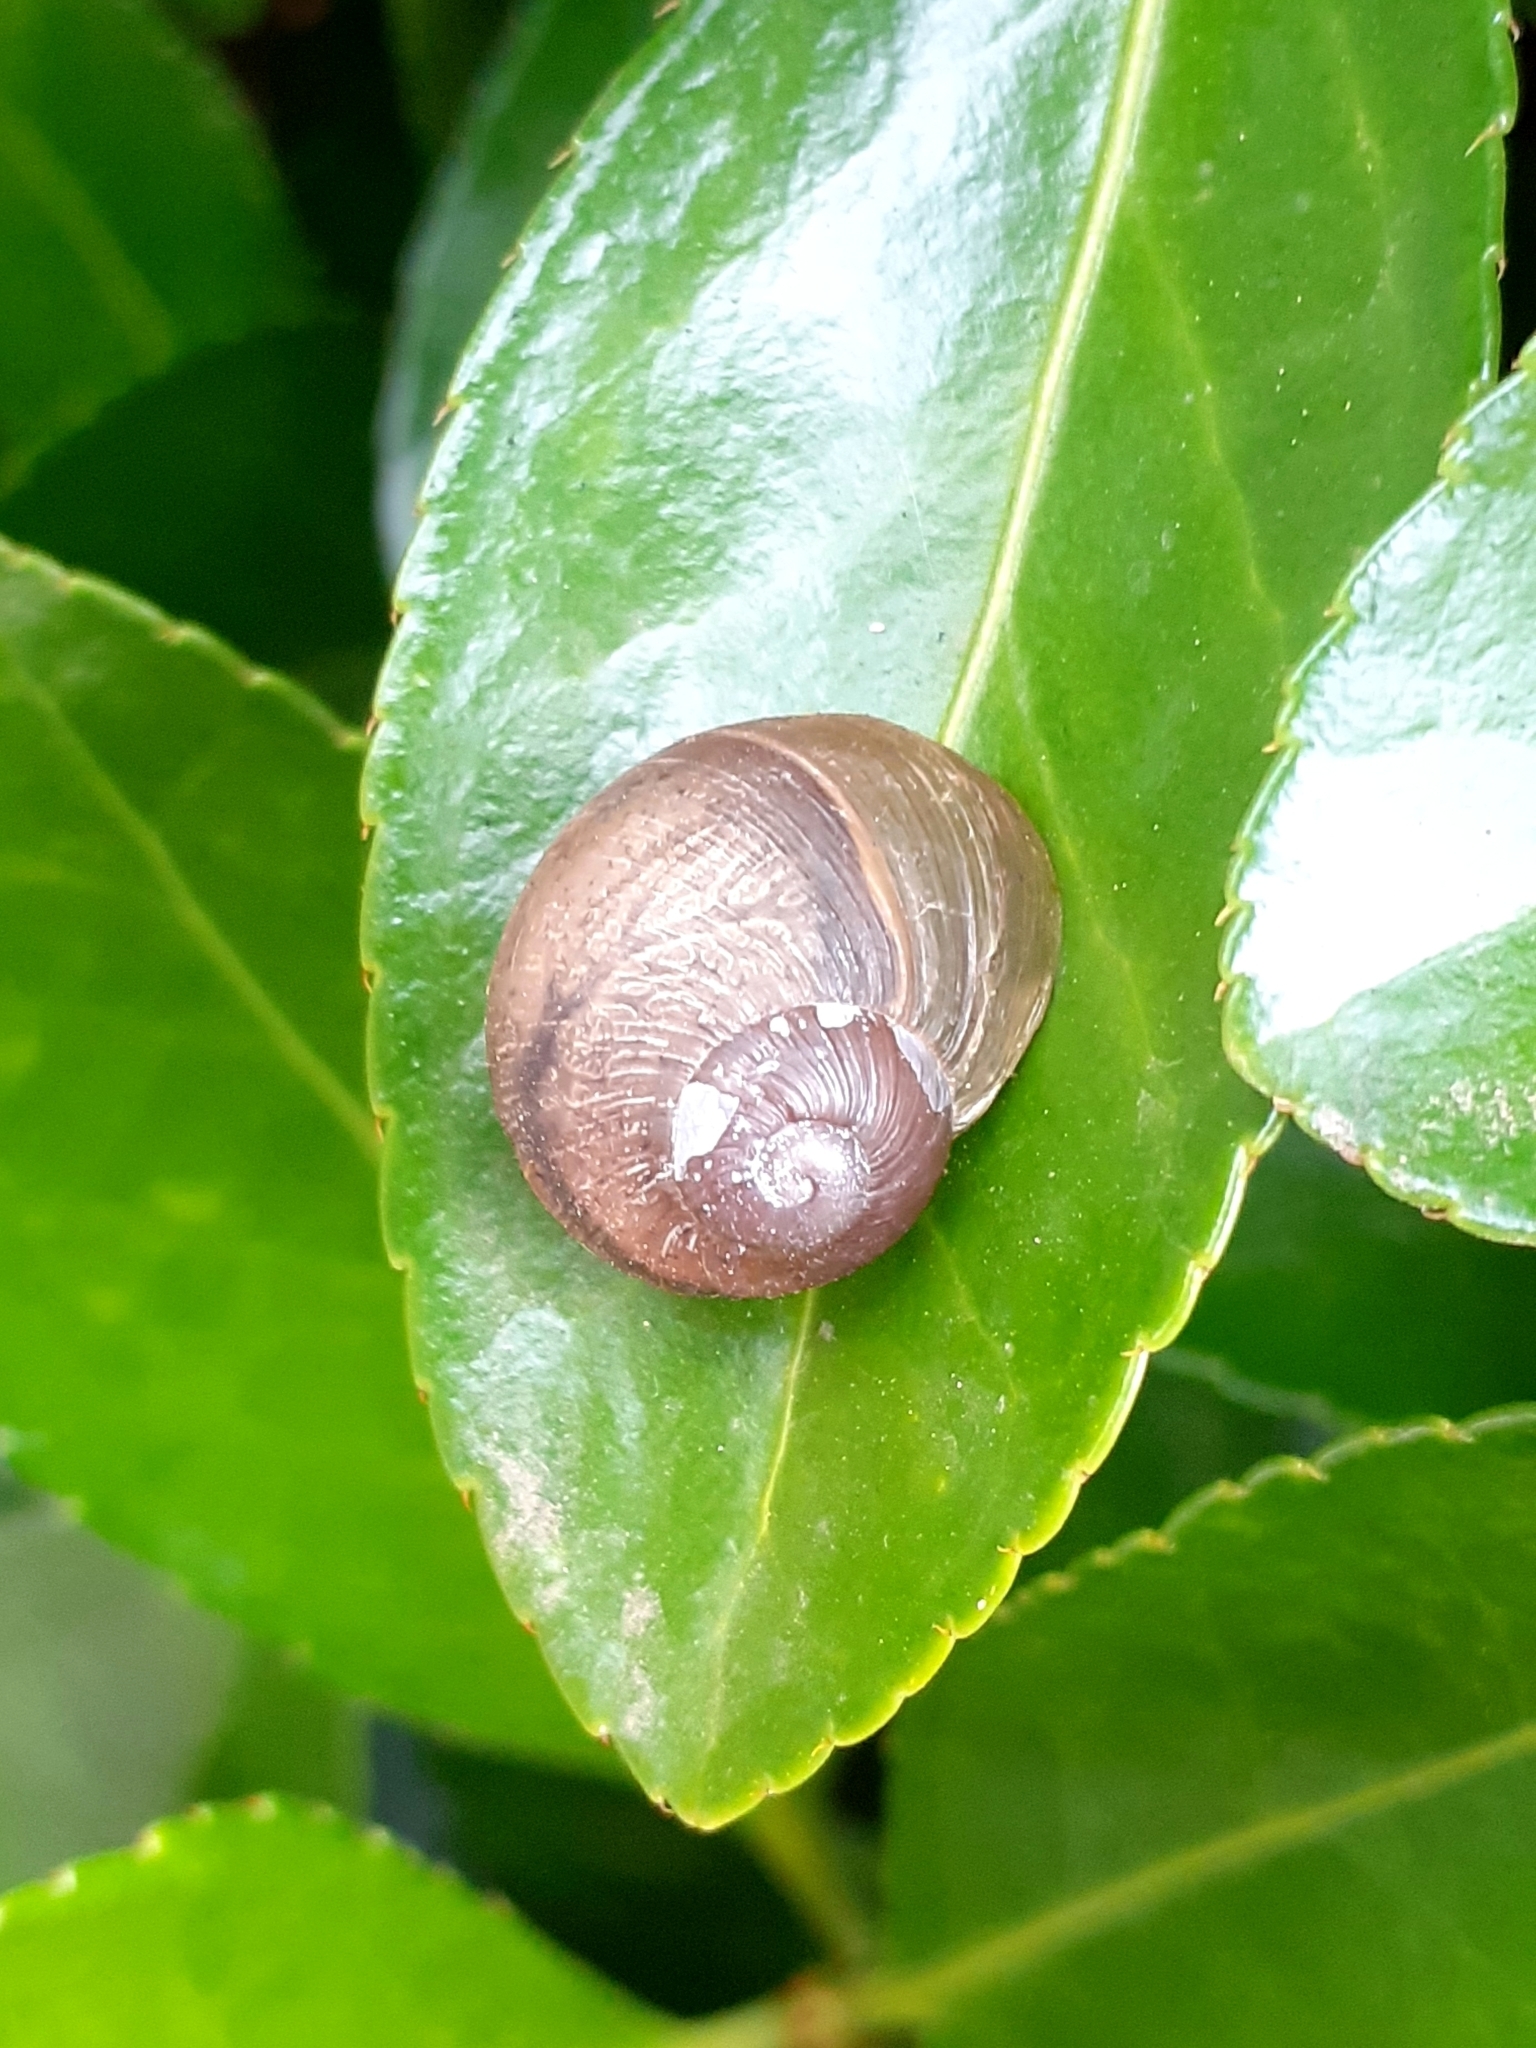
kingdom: Animalia
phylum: Mollusca
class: Gastropoda
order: Stylommatophora
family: Helicidae
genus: Cornu
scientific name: Cornu aspersum
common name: Brown garden snail
